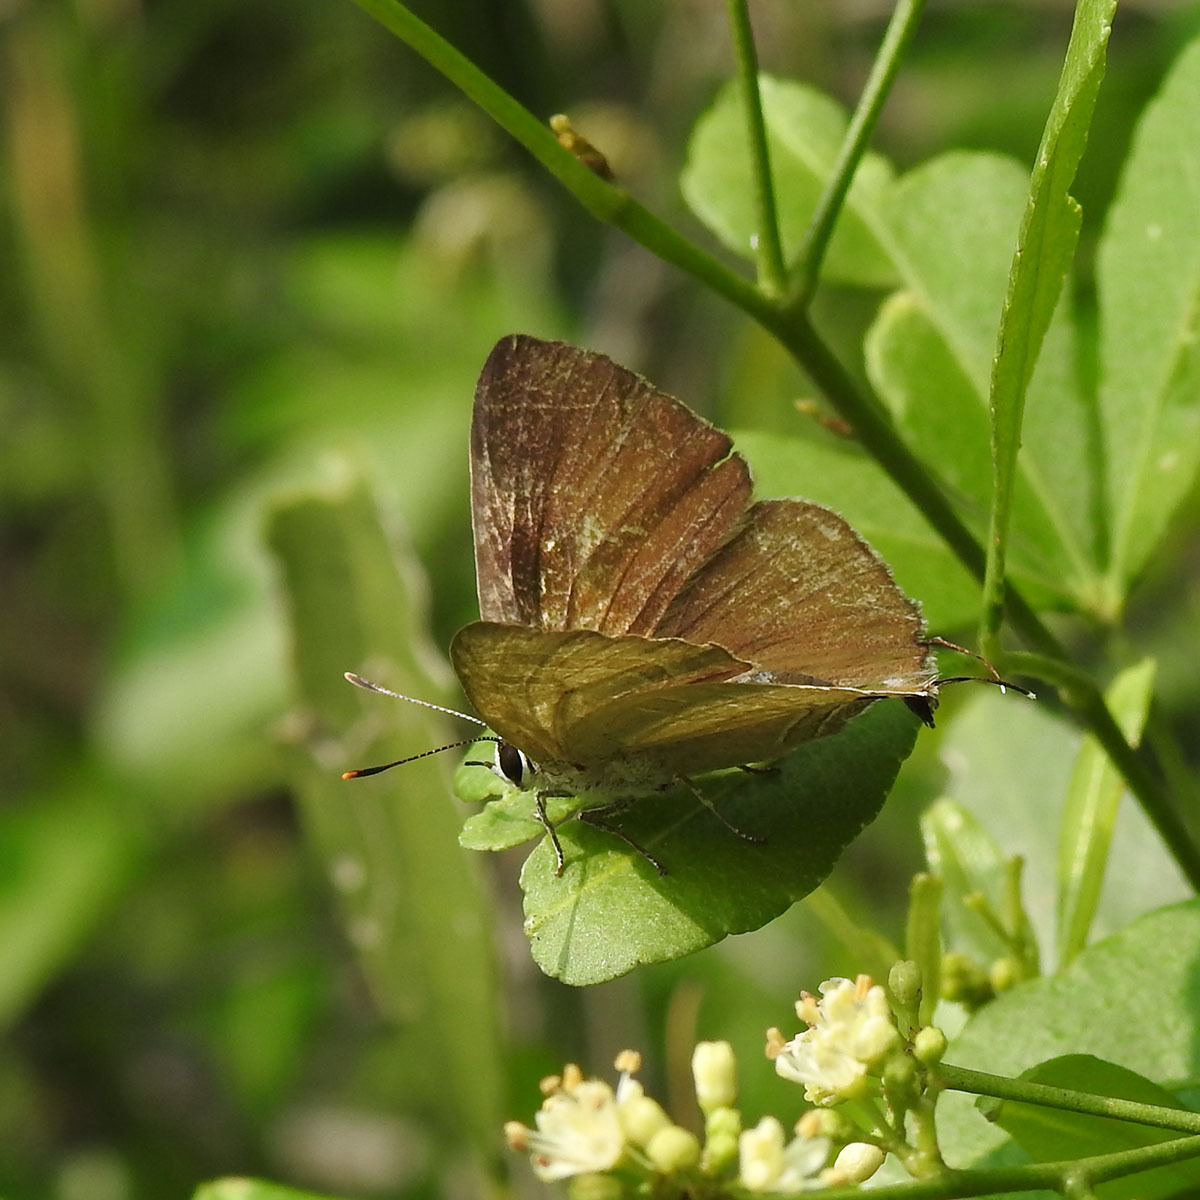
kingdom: Animalia
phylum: Arthropoda
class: Insecta
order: Lepidoptera
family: Lycaenidae
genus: Deudorix
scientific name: Deudorix epijarbas
